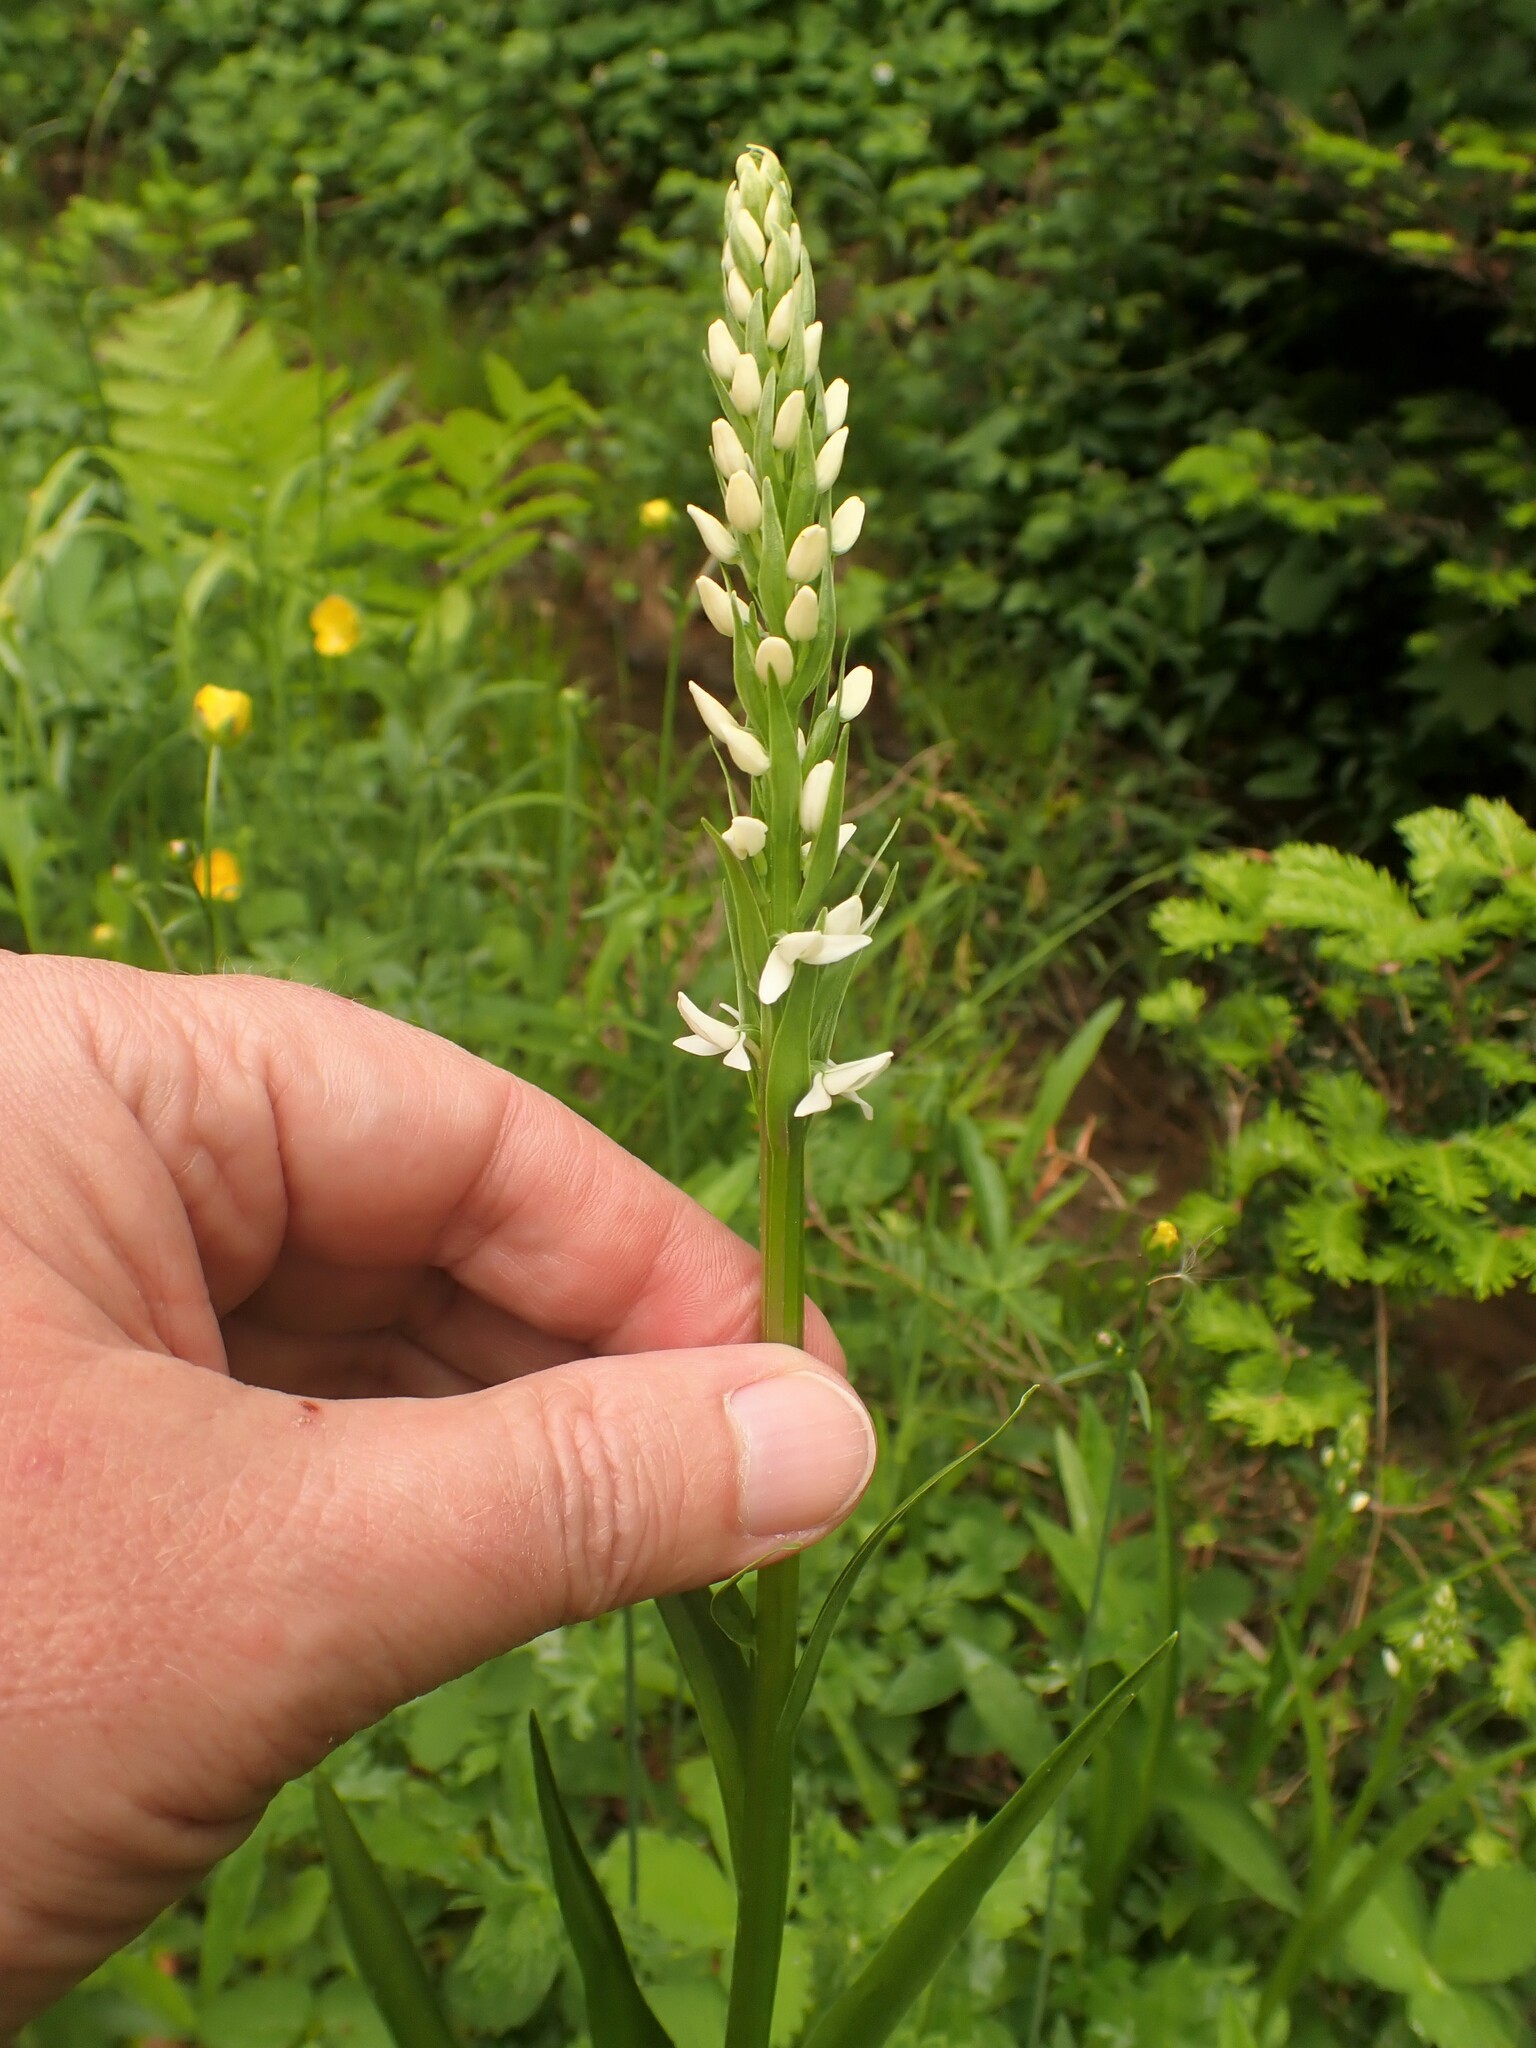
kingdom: Plantae
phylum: Tracheophyta
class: Liliopsida
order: Asparagales
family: Orchidaceae
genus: Platanthera
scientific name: Platanthera dilatata
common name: Bog candles
